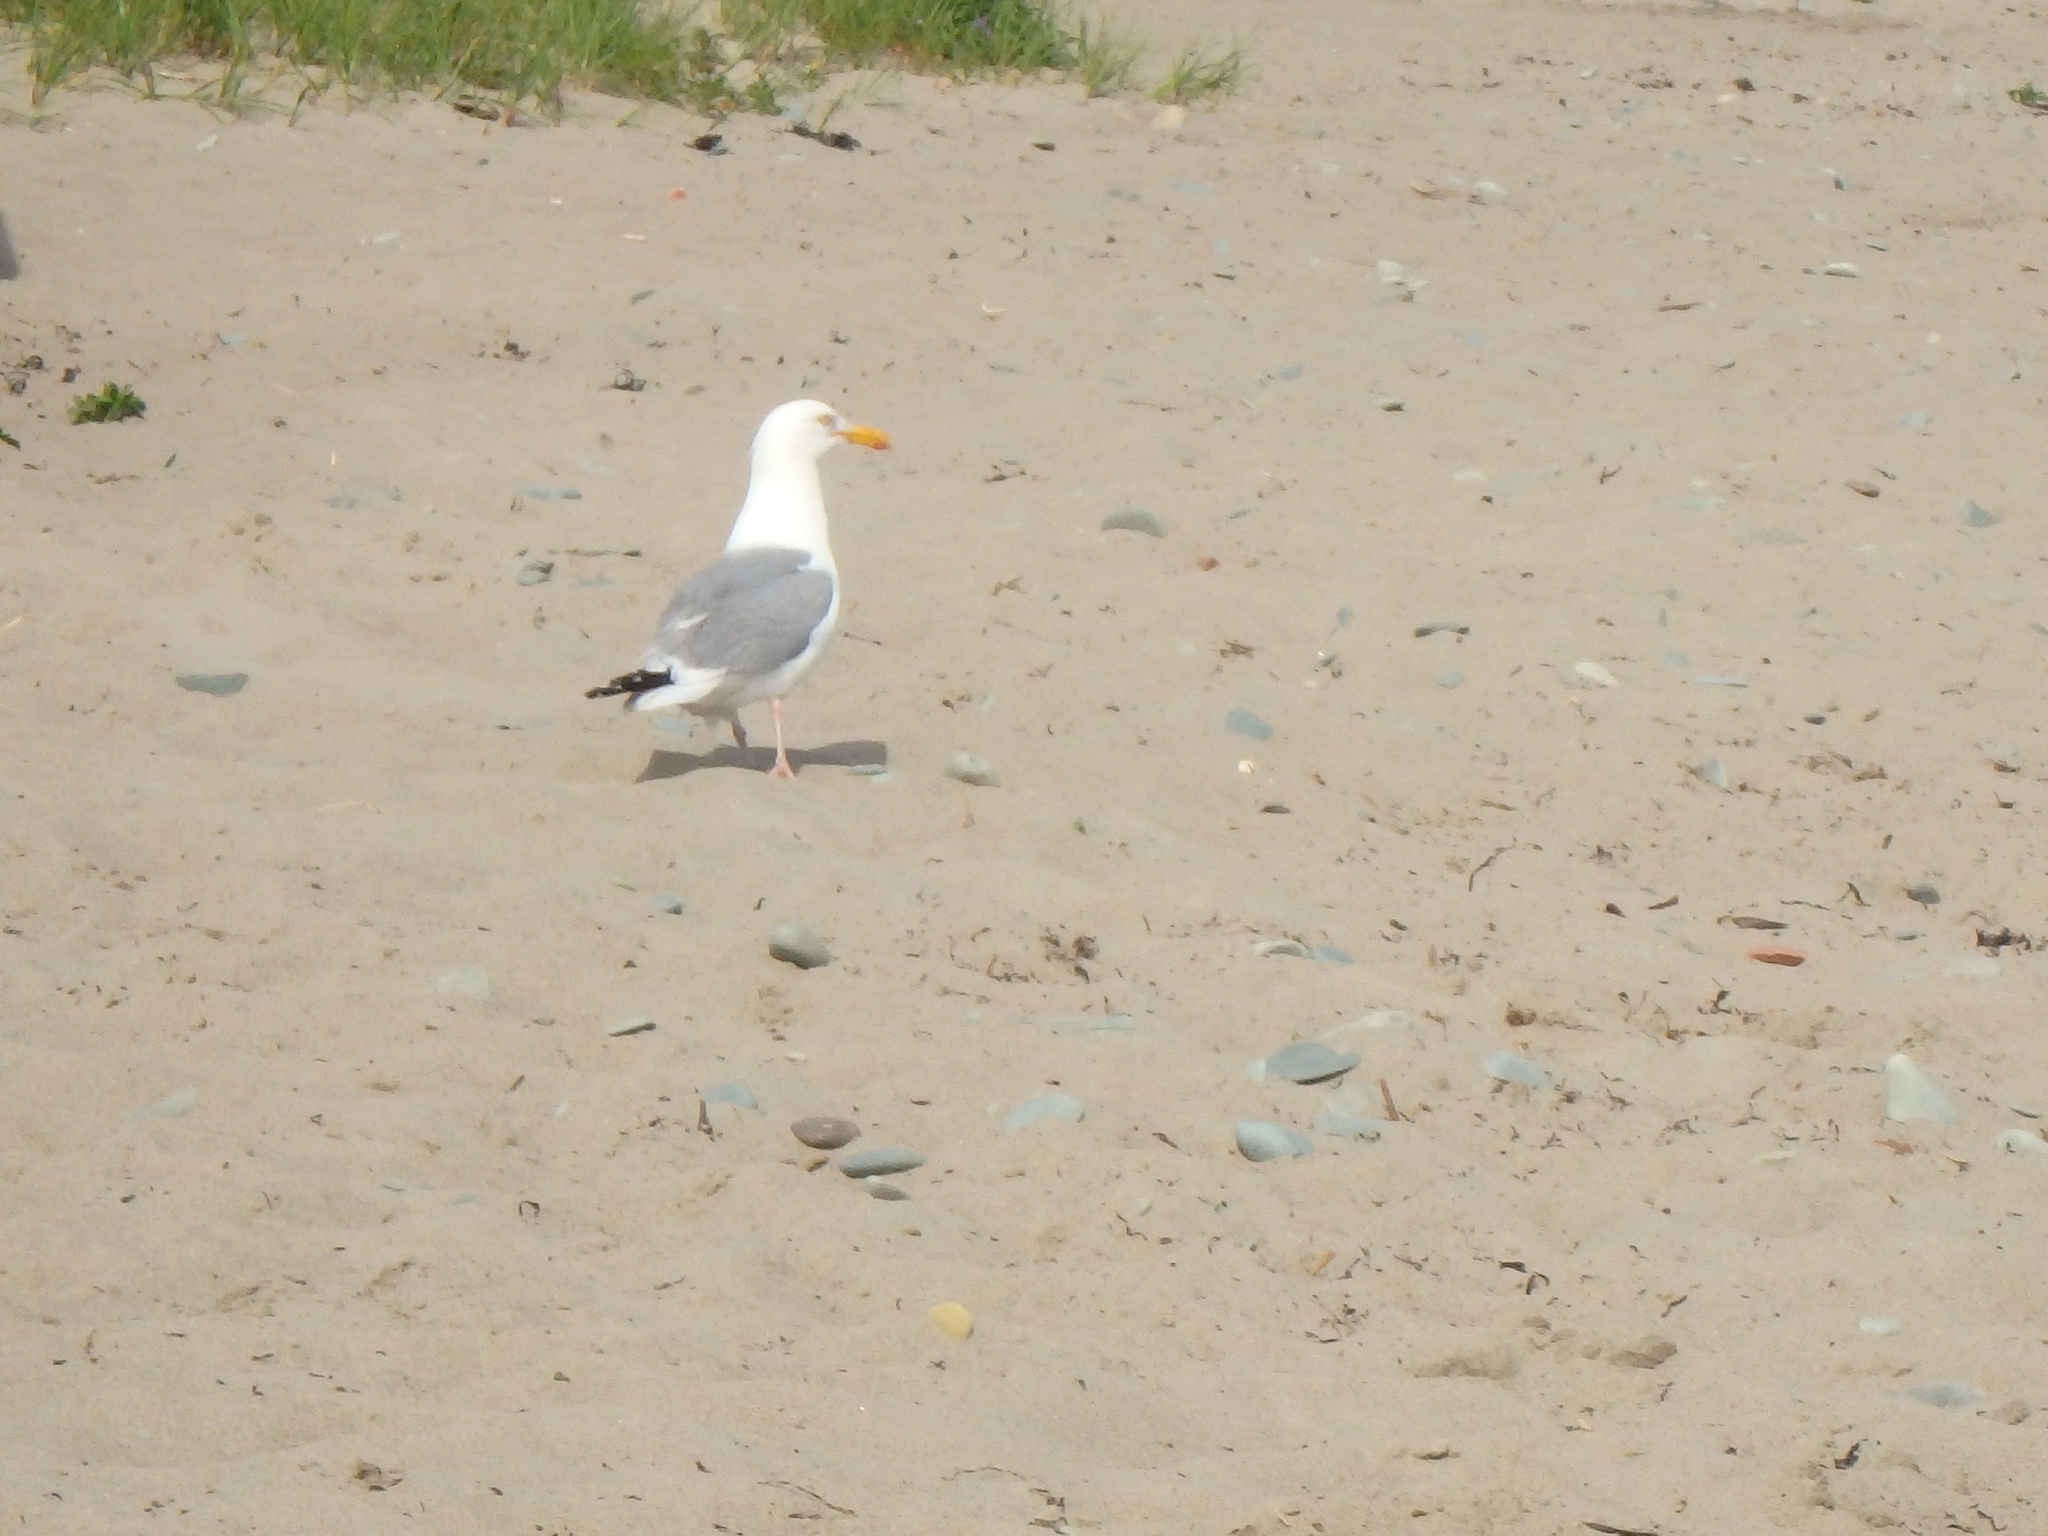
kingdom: Animalia
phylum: Chordata
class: Aves
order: Charadriiformes
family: Laridae
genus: Larus
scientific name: Larus argentatus
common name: Herring gull
